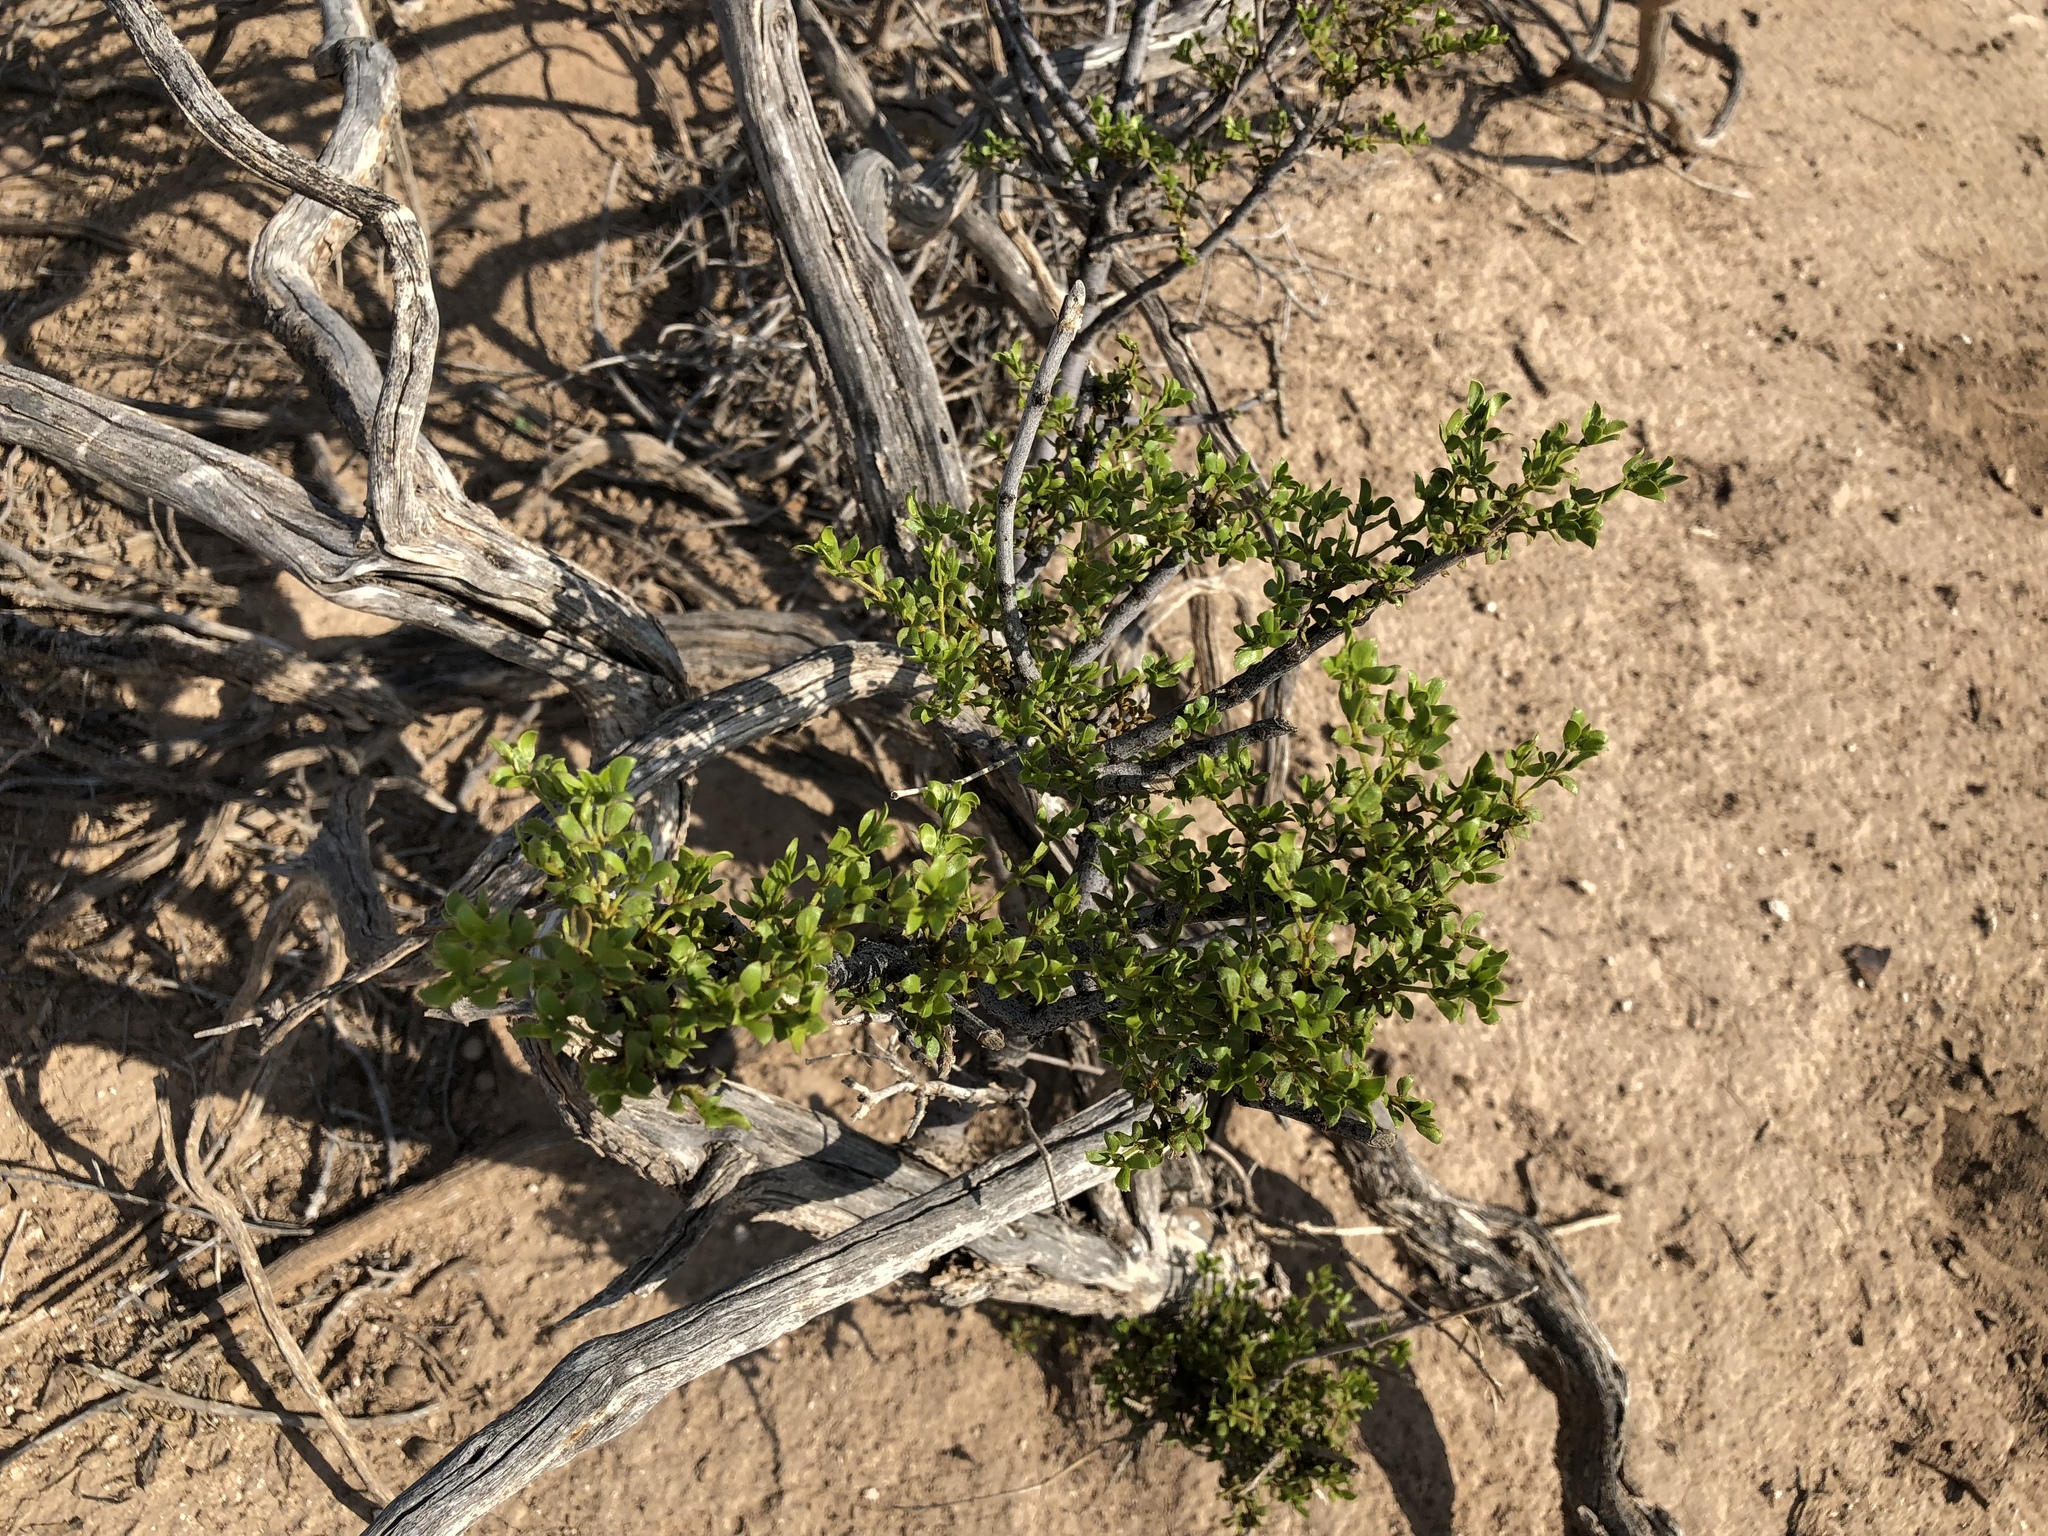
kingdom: Plantae
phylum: Tracheophyta
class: Magnoliopsida
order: Zygophyllales
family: Zygophyllaceae
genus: Larrea
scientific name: Larrea tridentata
